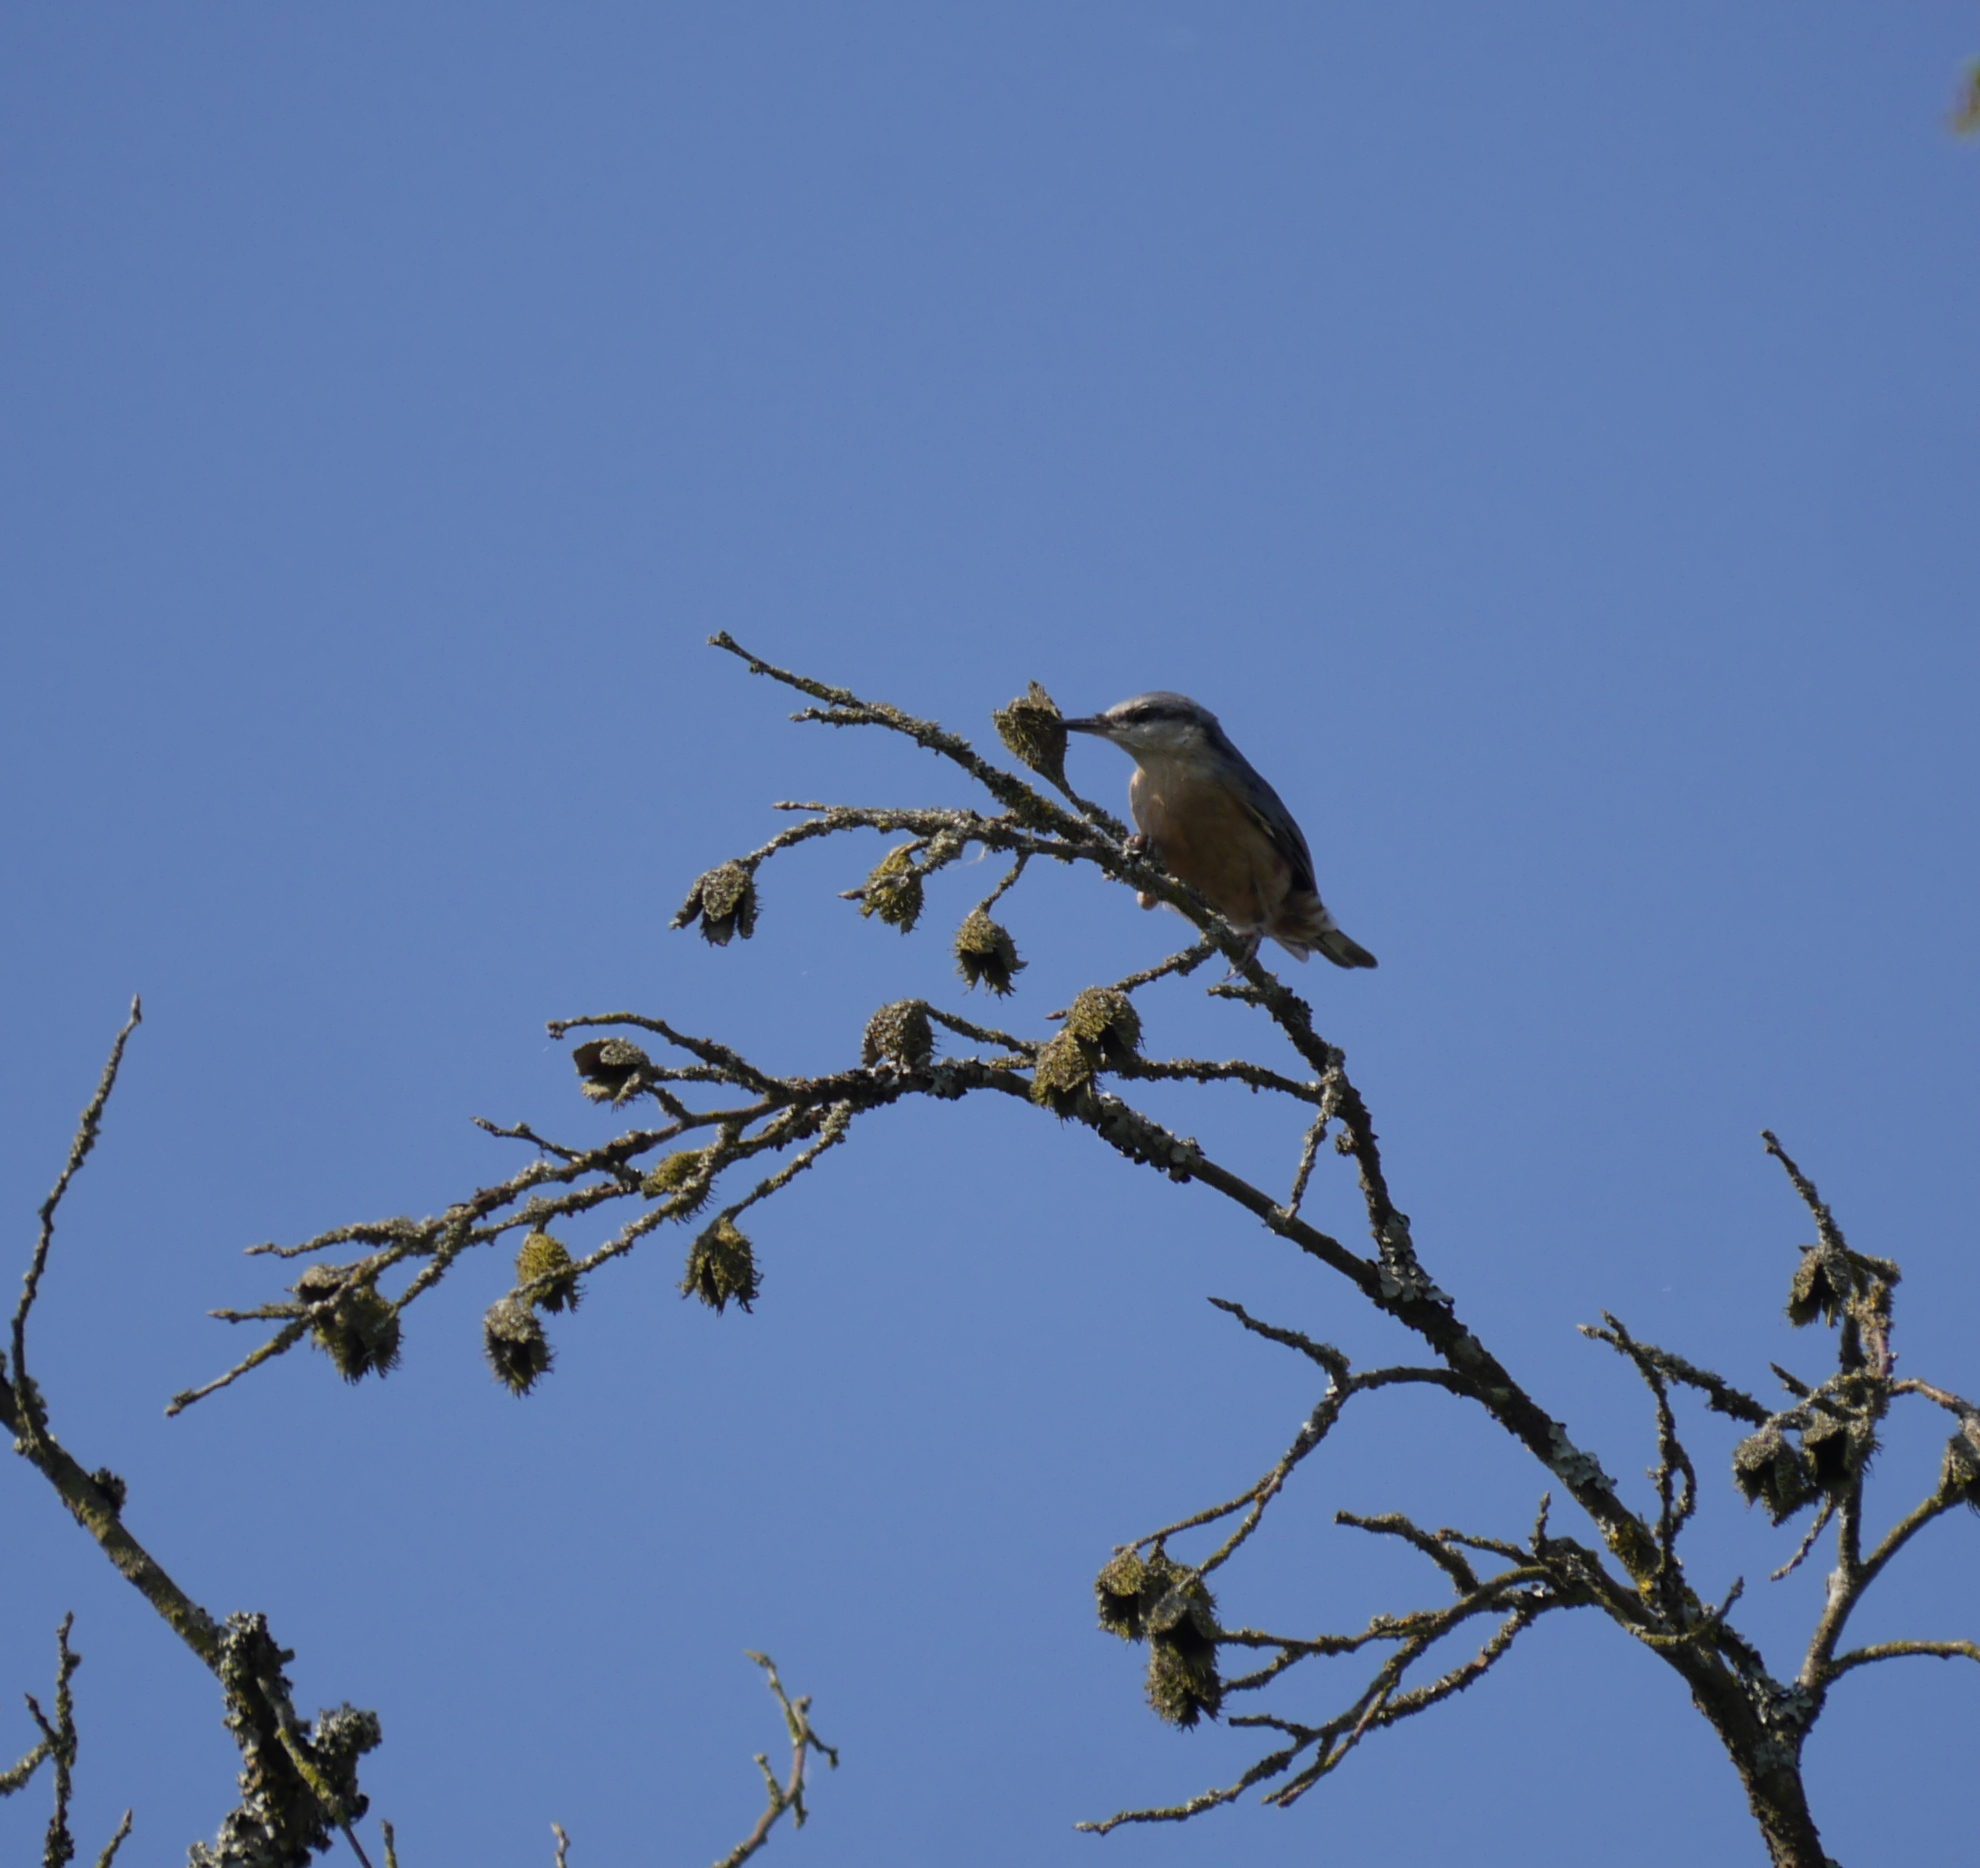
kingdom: Animalia
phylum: Chordata
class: Aves
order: Passeriformes
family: Sittidae
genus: Sitta
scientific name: Sitta europaea
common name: Eurasian nuthatch
